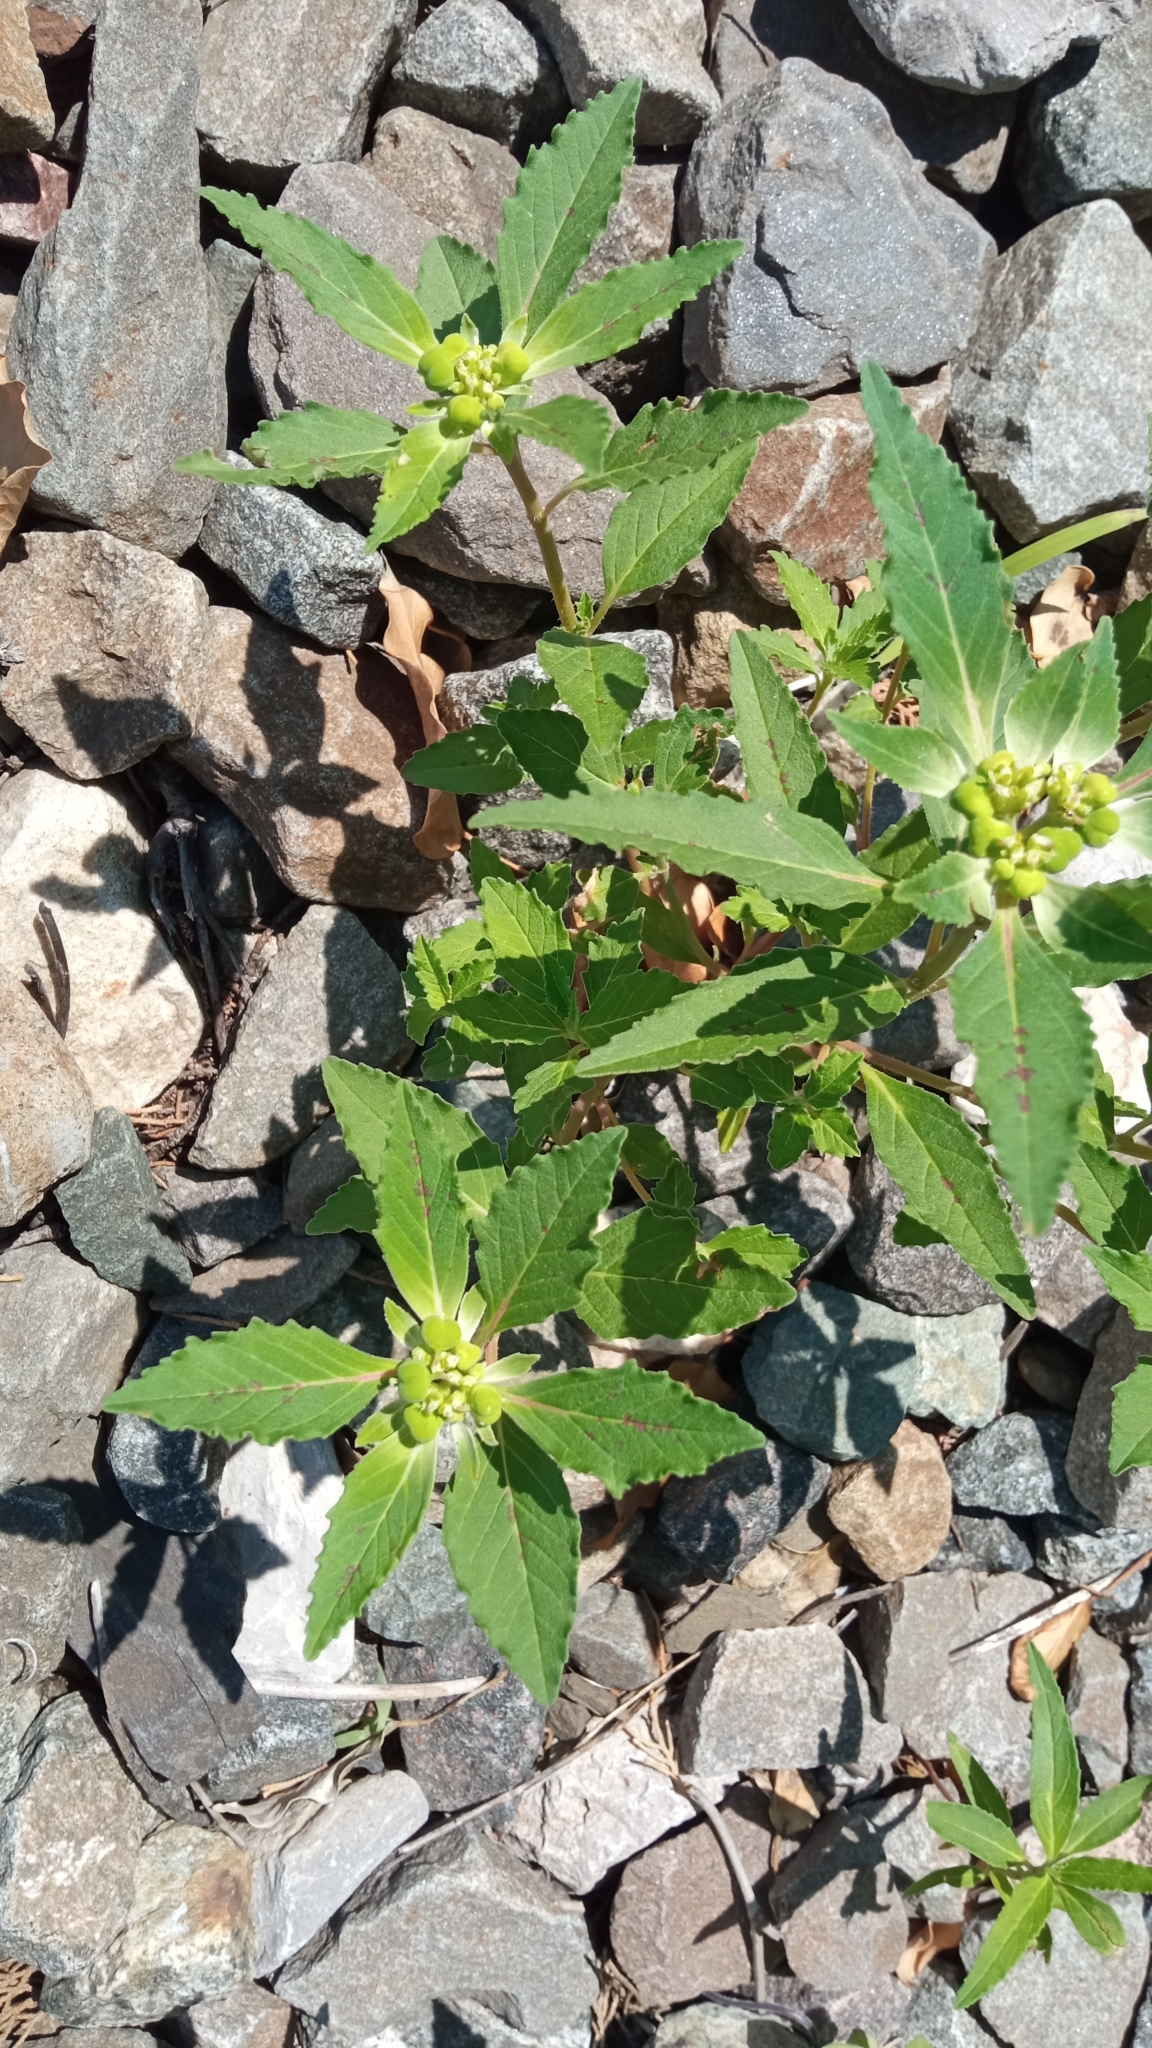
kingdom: Plantae
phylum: Tracheophyta
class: Magnoliopsida
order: Malpighiales
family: Euphorbiaceae
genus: Euphorbia
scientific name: Euphorbia davidii
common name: David's spurge
